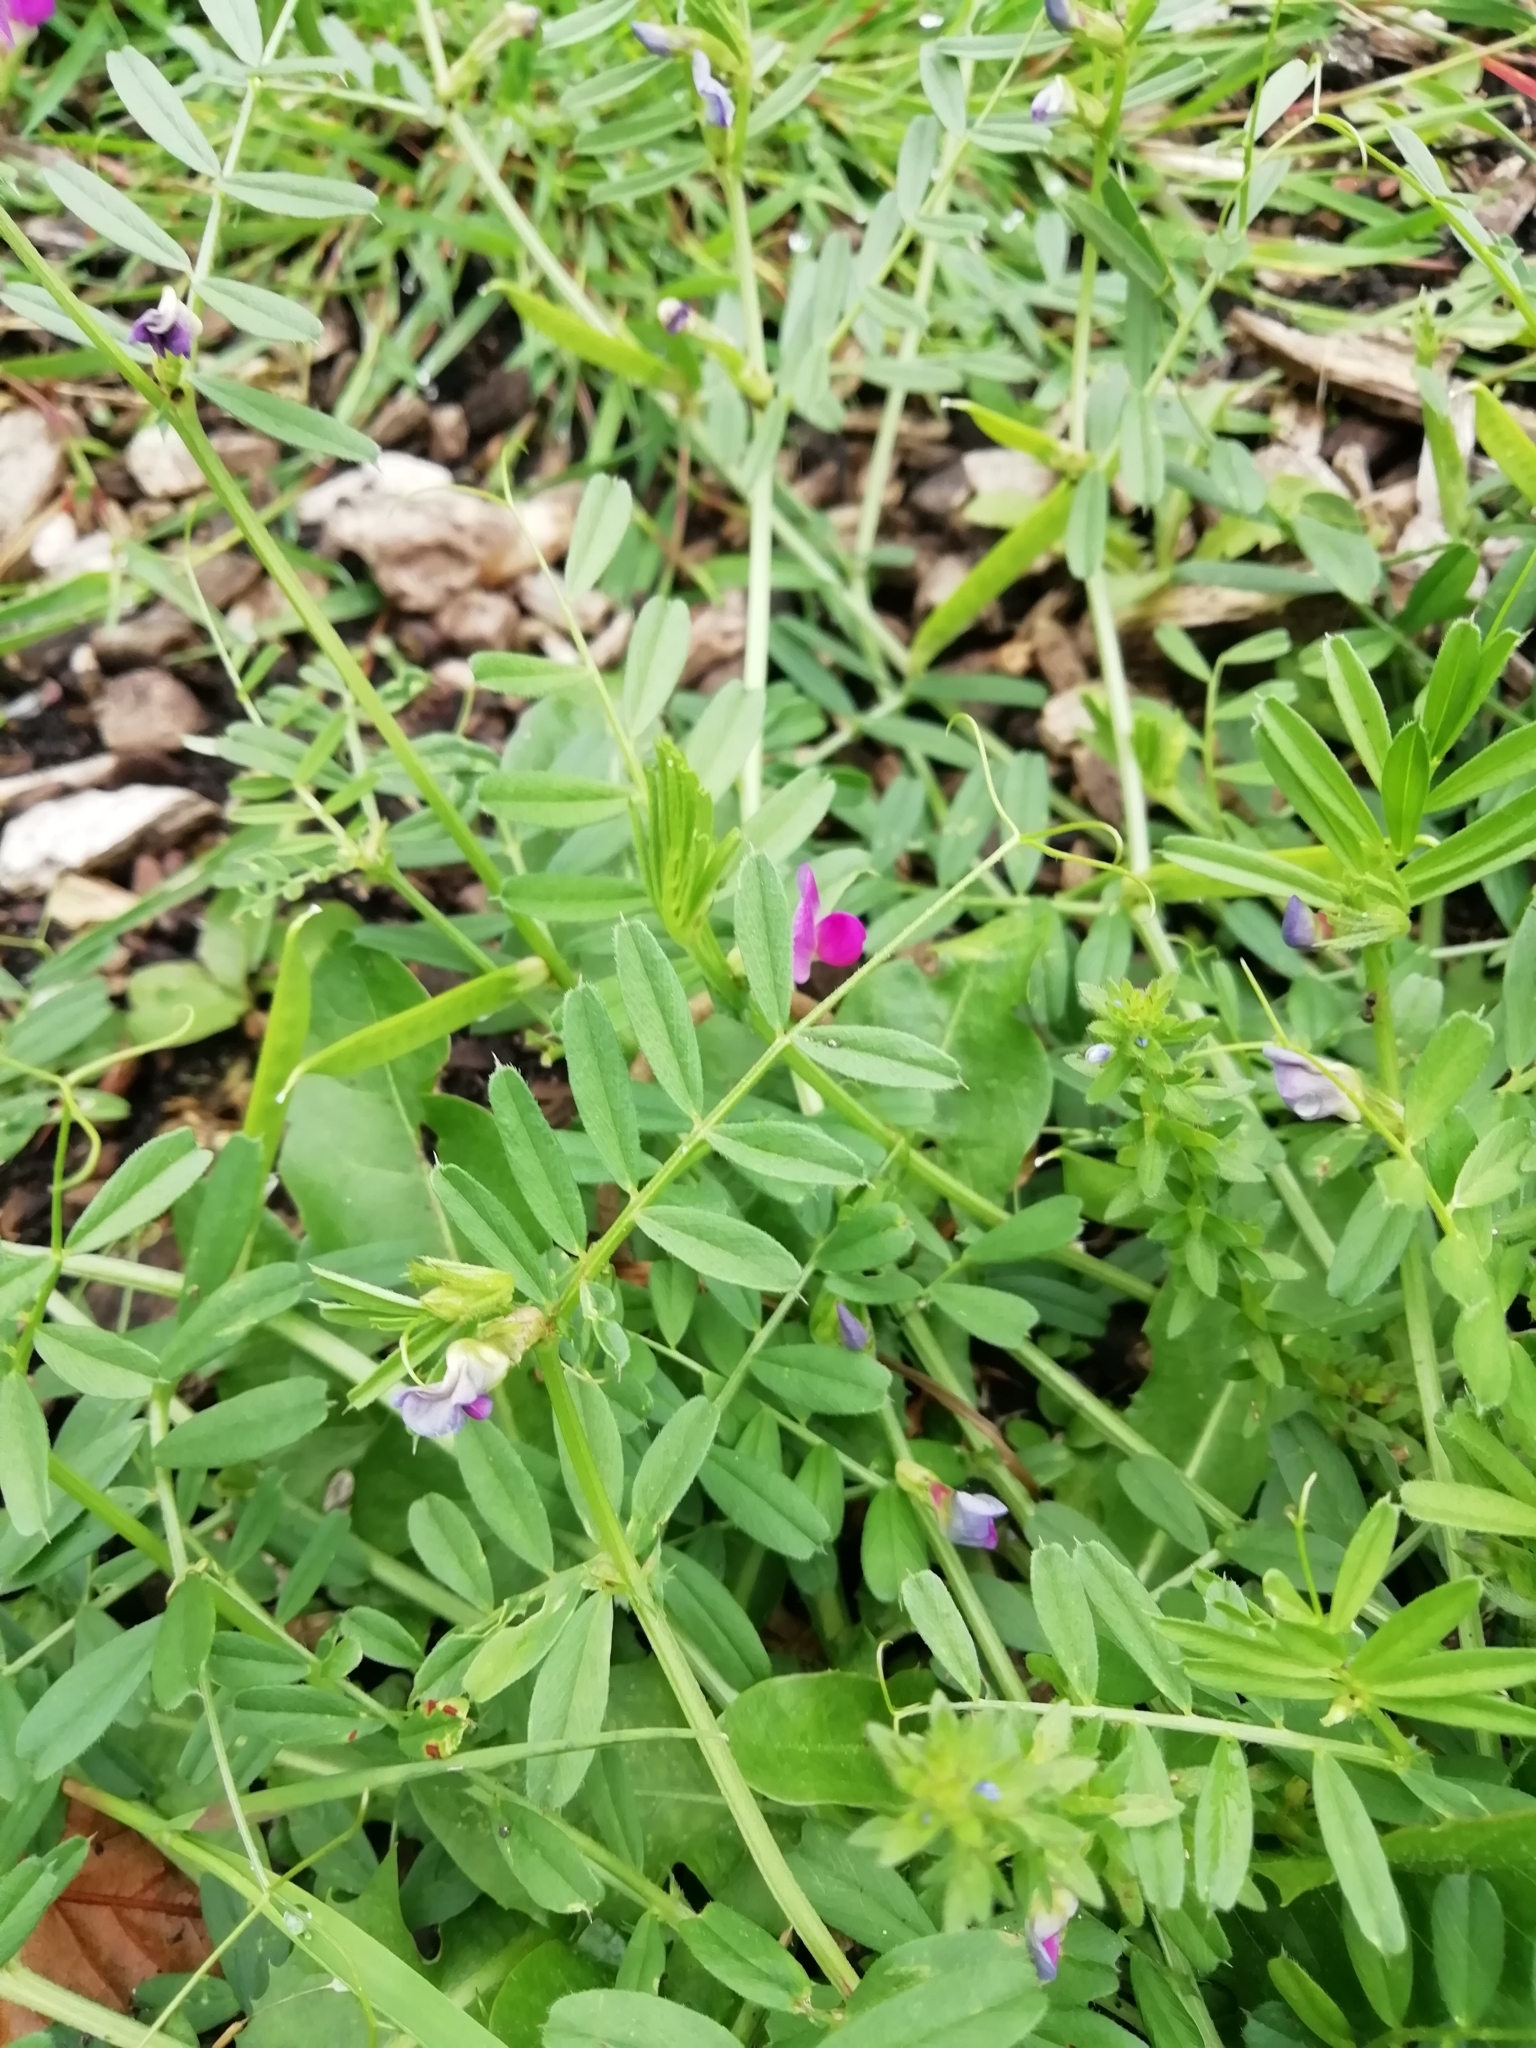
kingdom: Plantae
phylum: Tracheophyta
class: Magnoliopsida
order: Fabales
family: Fabaceae
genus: Vicia
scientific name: Vicia sativa
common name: Garden vetch
